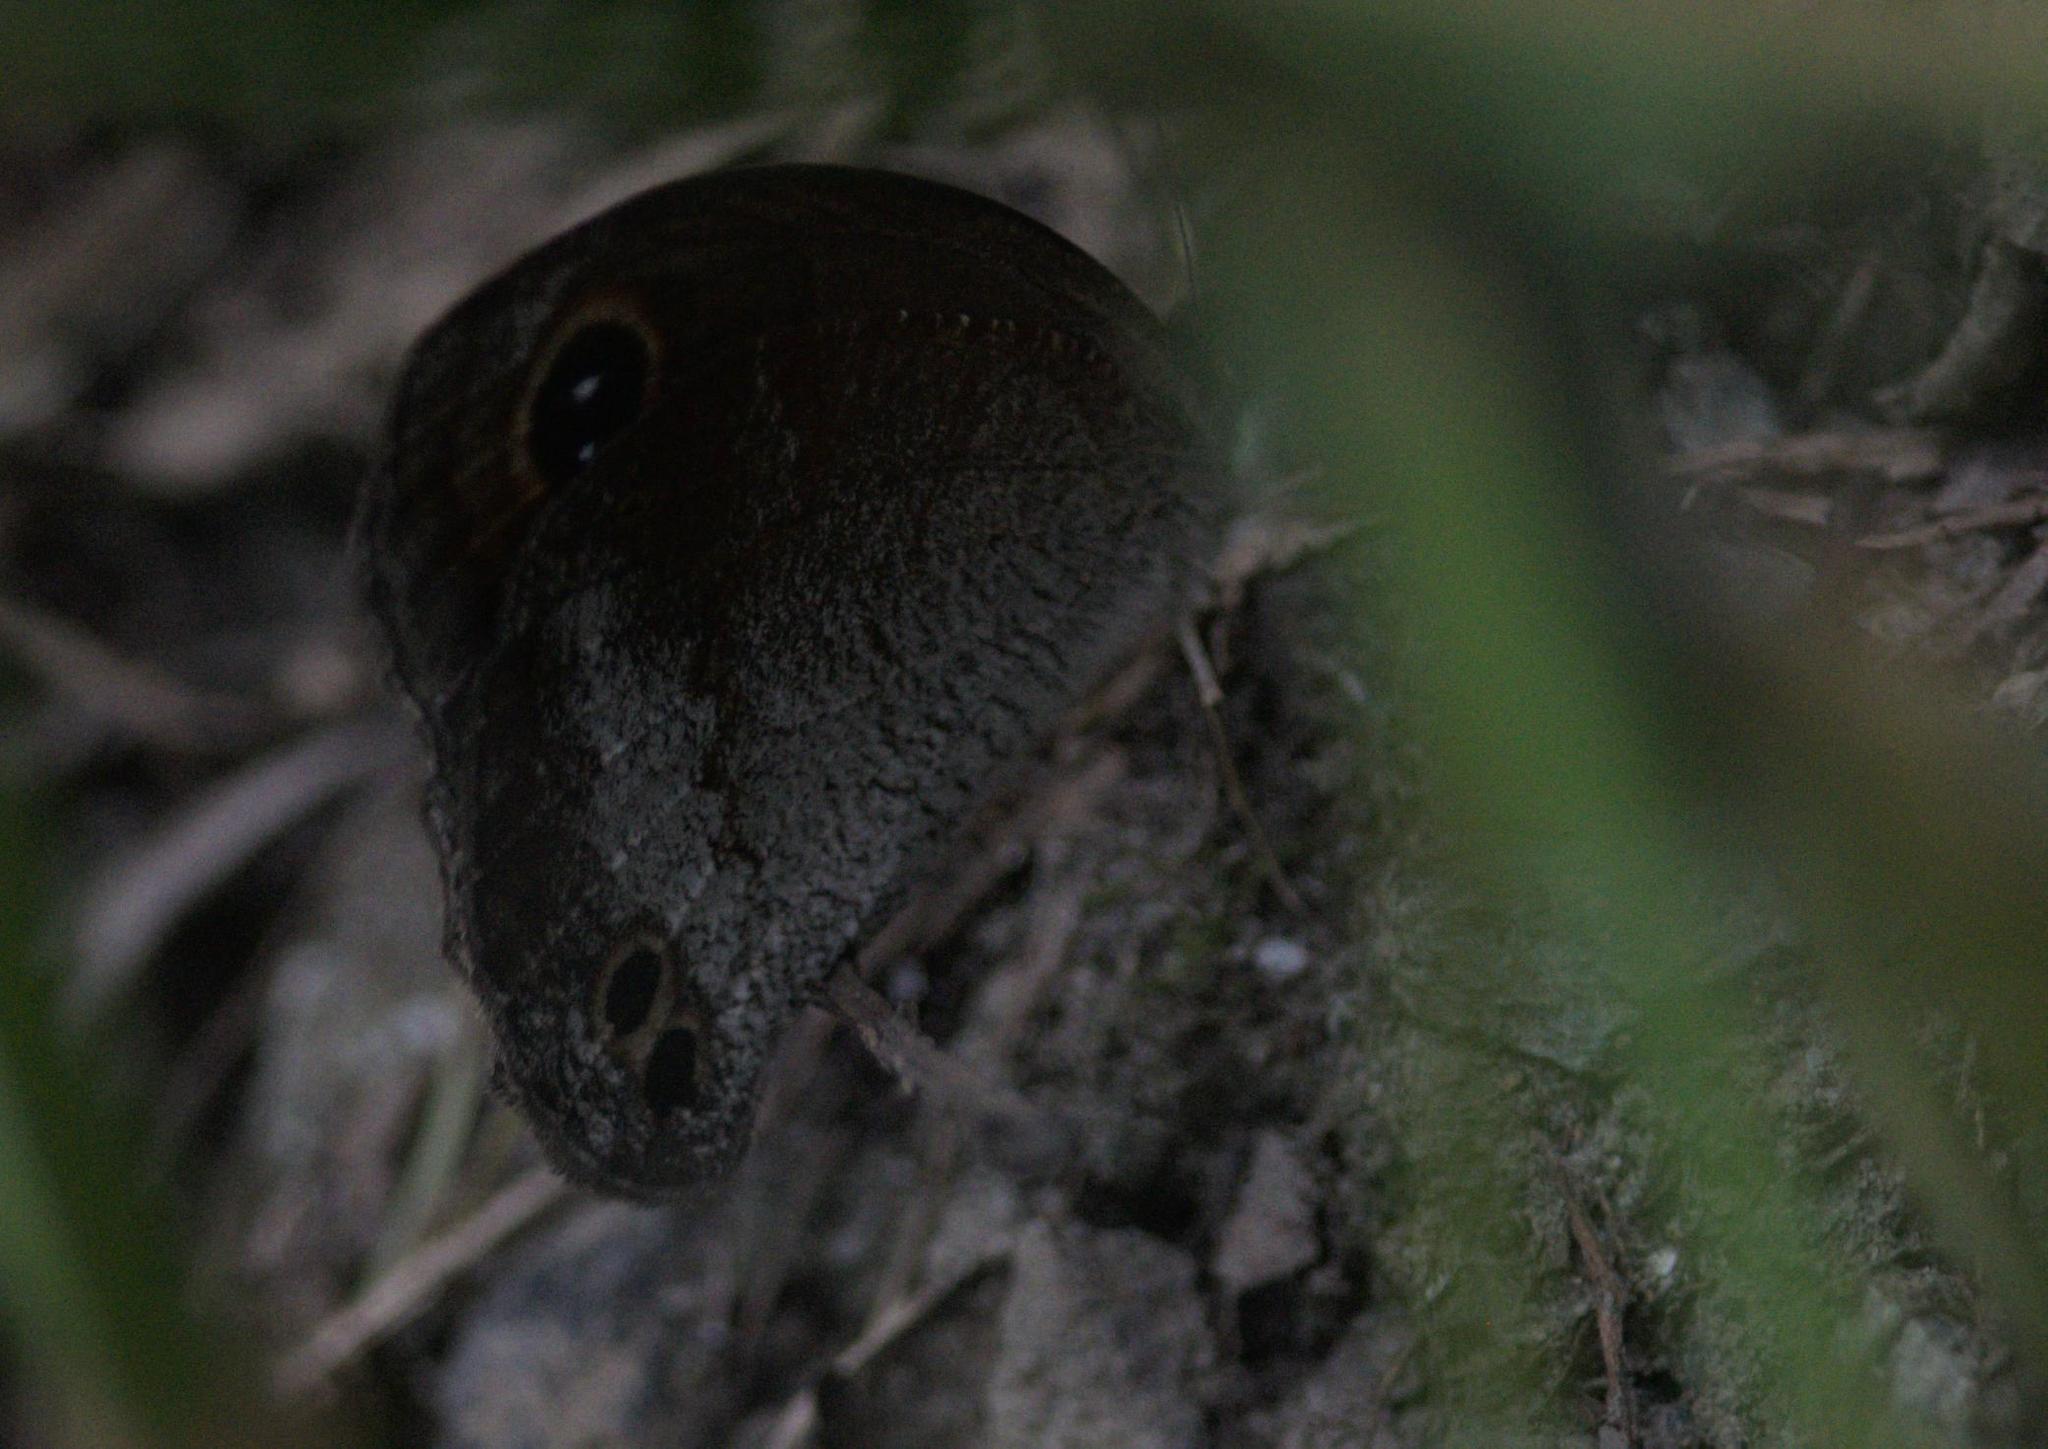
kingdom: Animalia
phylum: Arthropoda
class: Insecta
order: Lepidoptera
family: Nymphalidae
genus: Callerebia
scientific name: Callerebia annada
